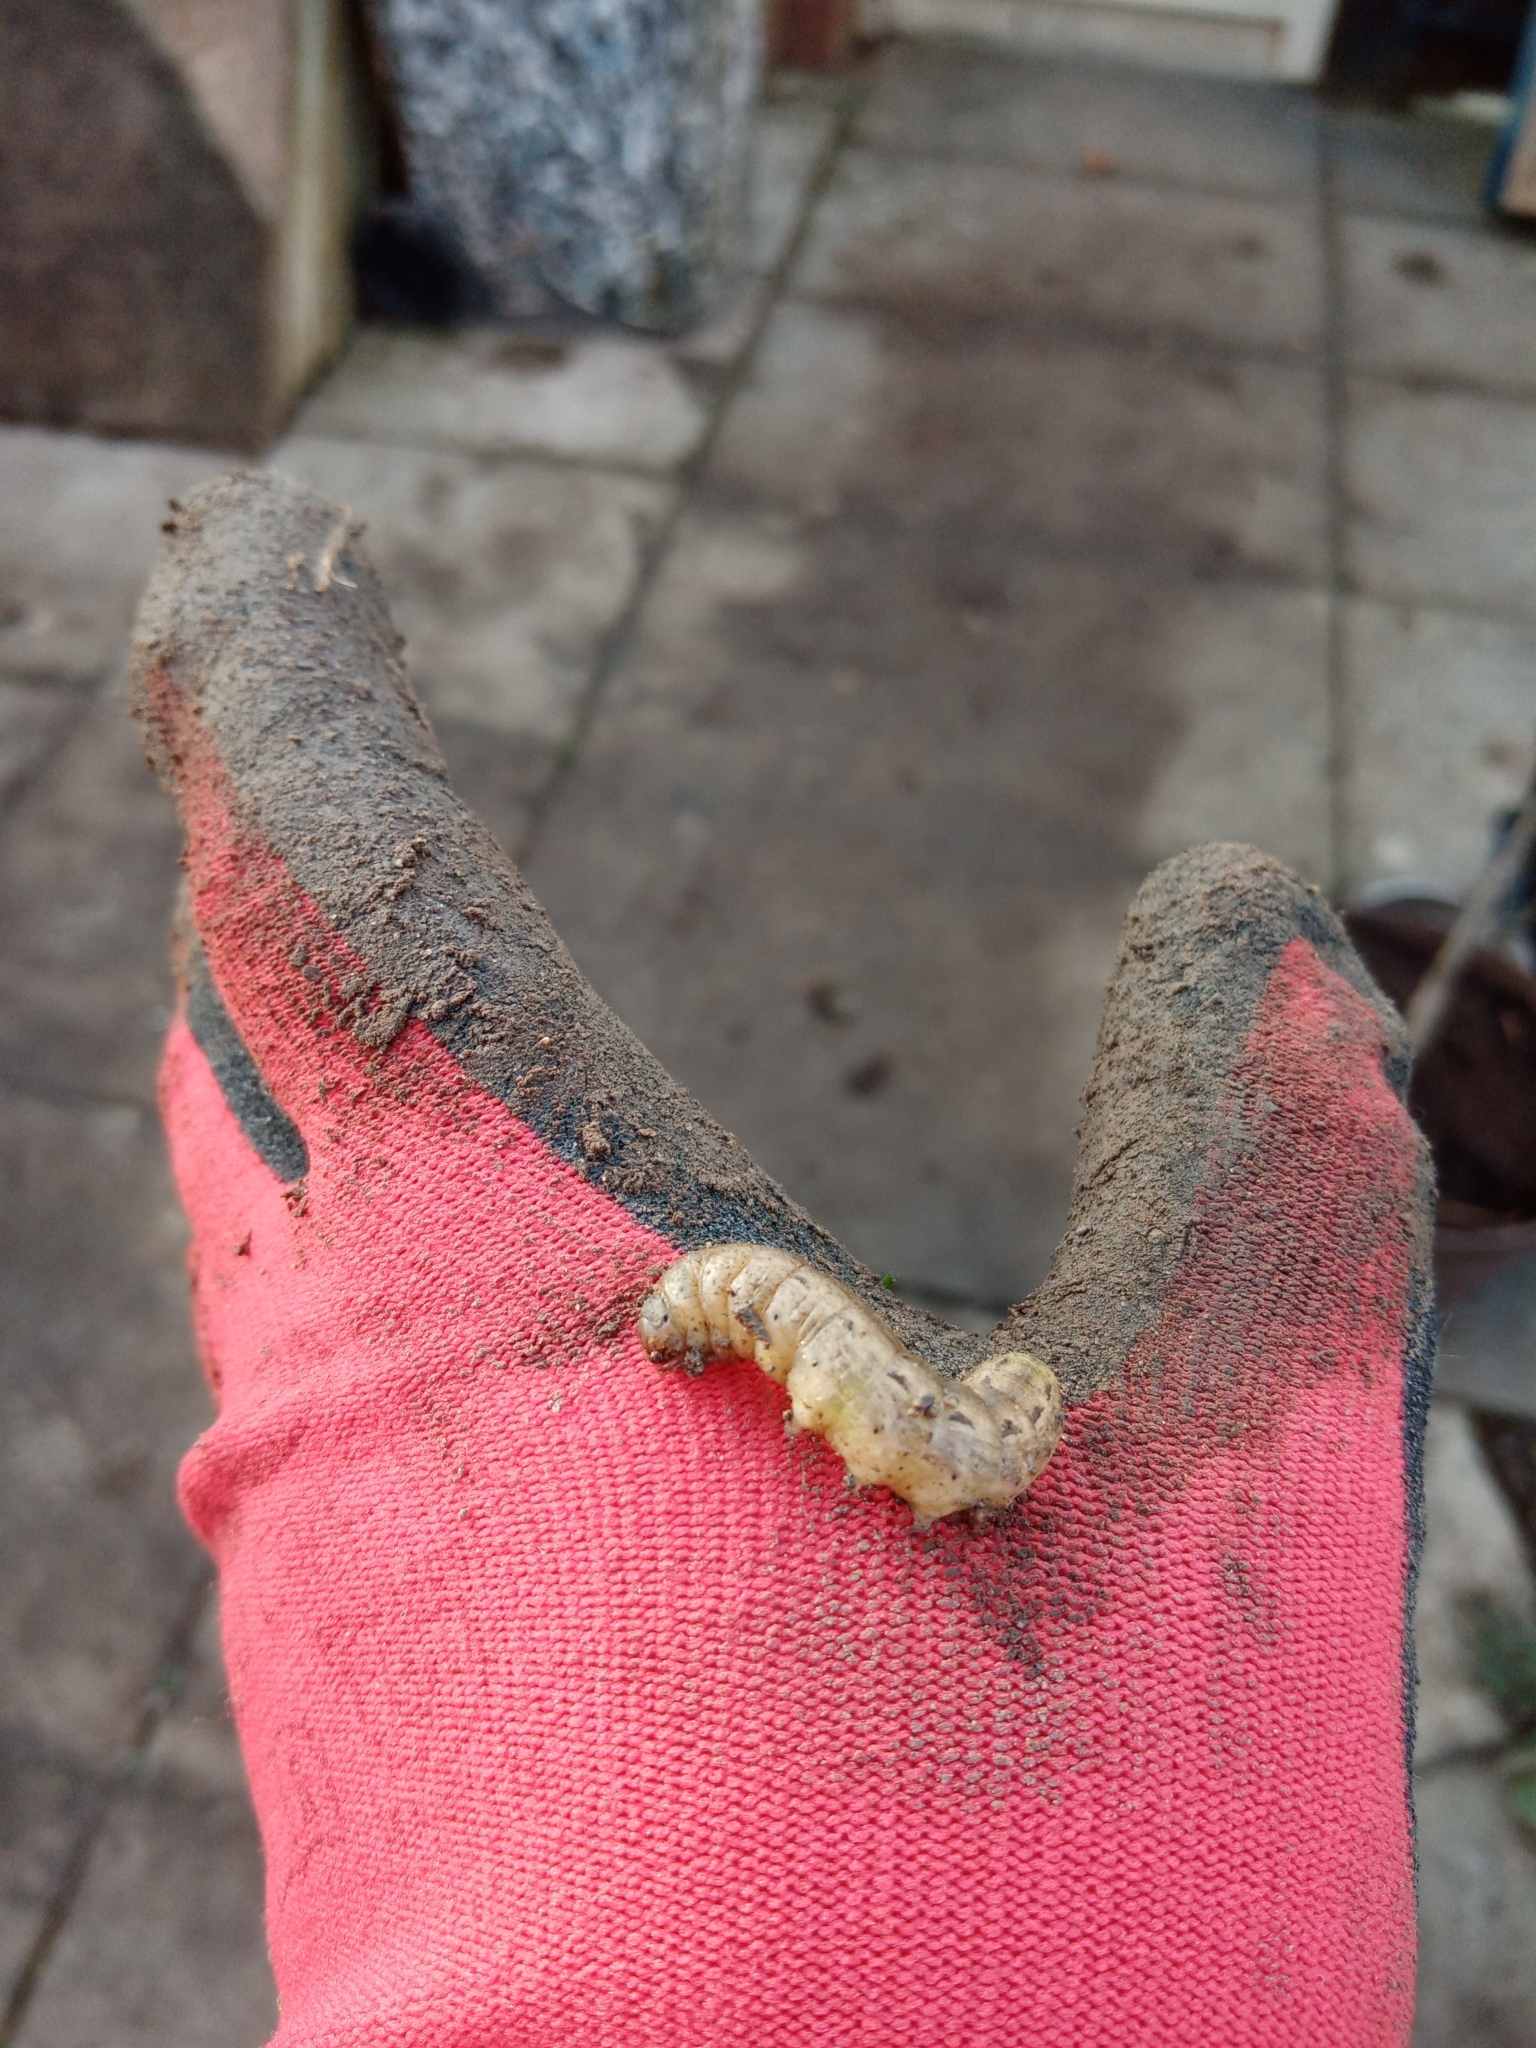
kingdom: Animalia
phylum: Arthropoda
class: Insecta
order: Lepidoptera
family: Noctuidae
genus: Noctua
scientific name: Noctua pronuba
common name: Large yellow underwing
